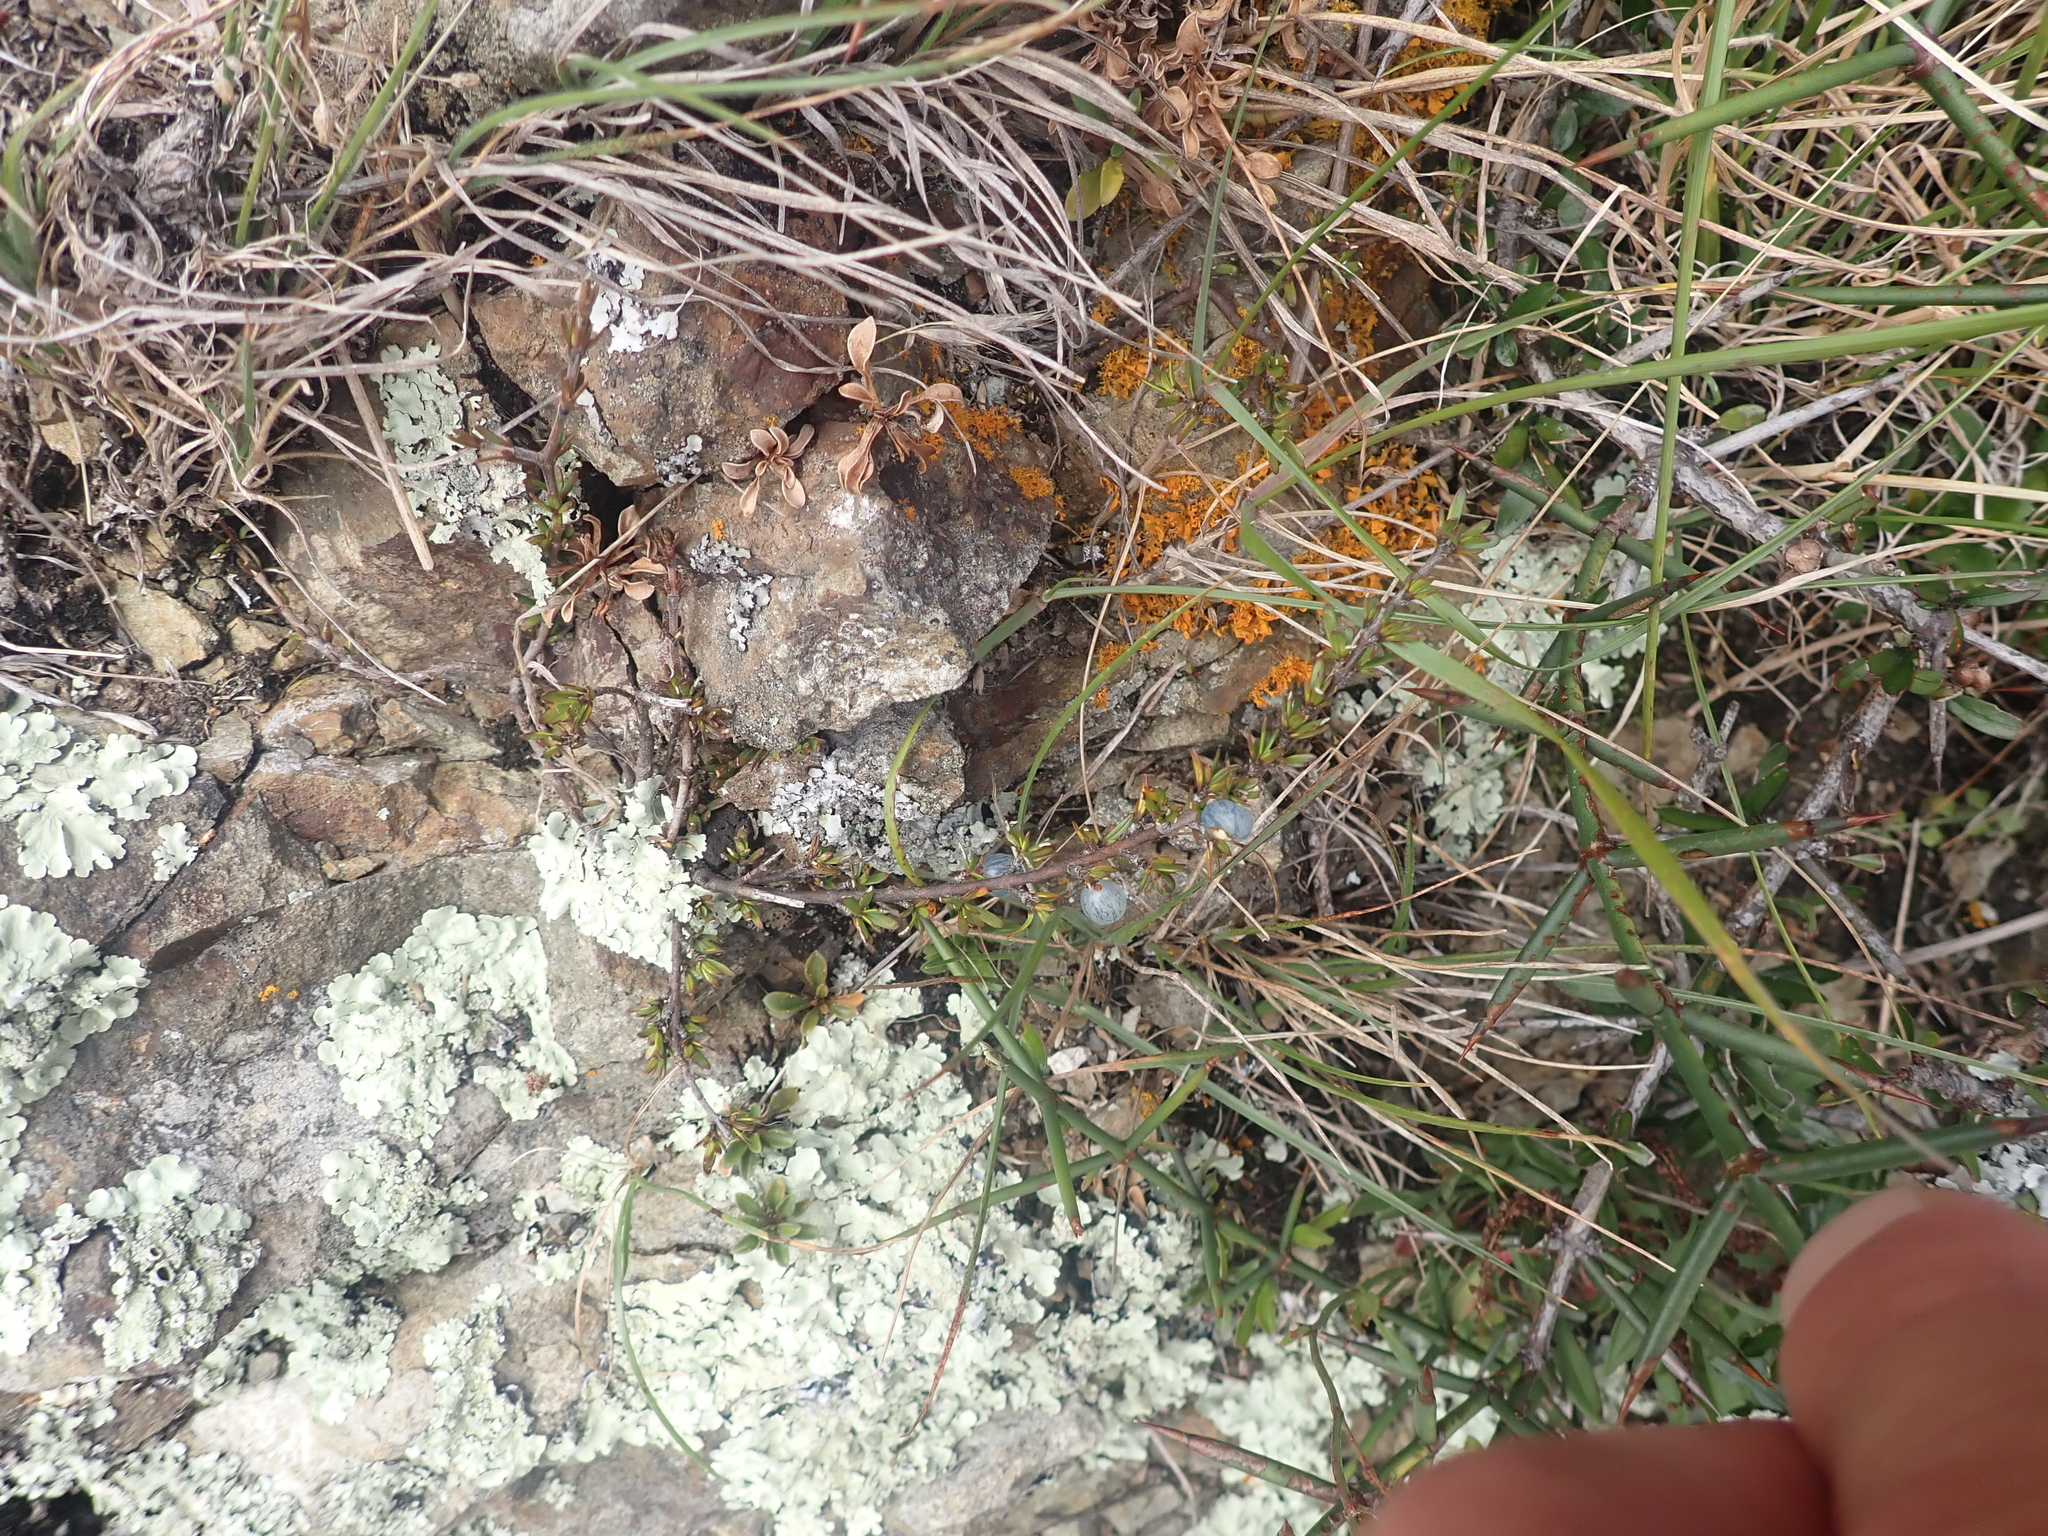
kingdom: Plantae
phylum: Tracheophyta
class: Magnoliopsida
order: Gentianales
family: Rubiaceae
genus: Coprosma
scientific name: Coprosma acerosa
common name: Sand coprosma
